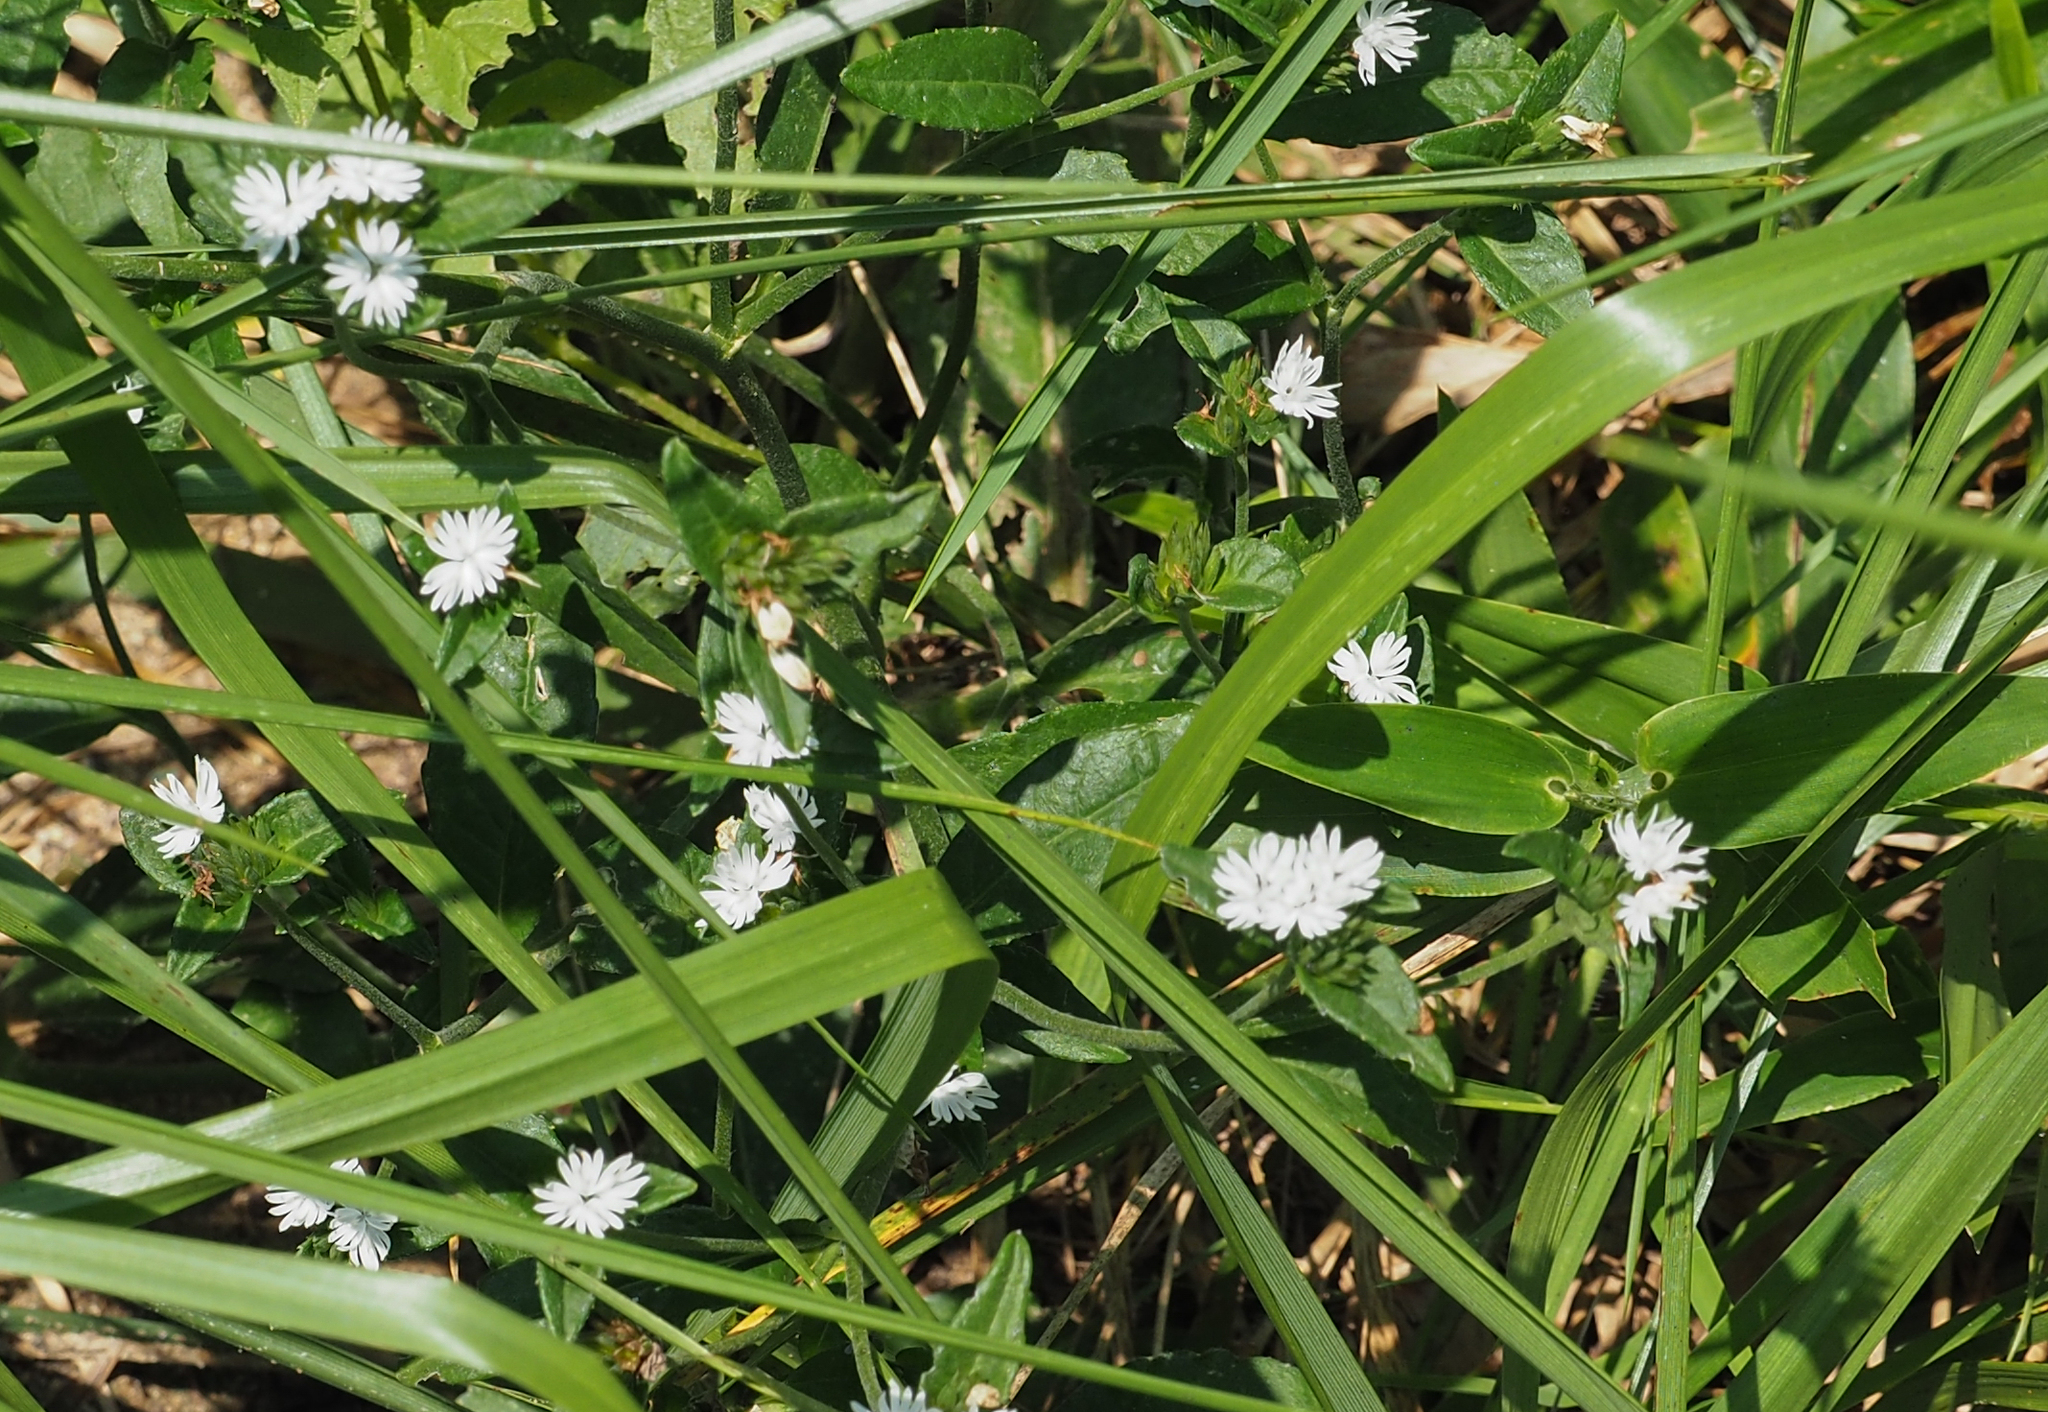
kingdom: Plantae
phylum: Tracheophyta
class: Magnoliopsida
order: Asterales
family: Asteraceae
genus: Elephantopus
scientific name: Elephantopus carolinianus
